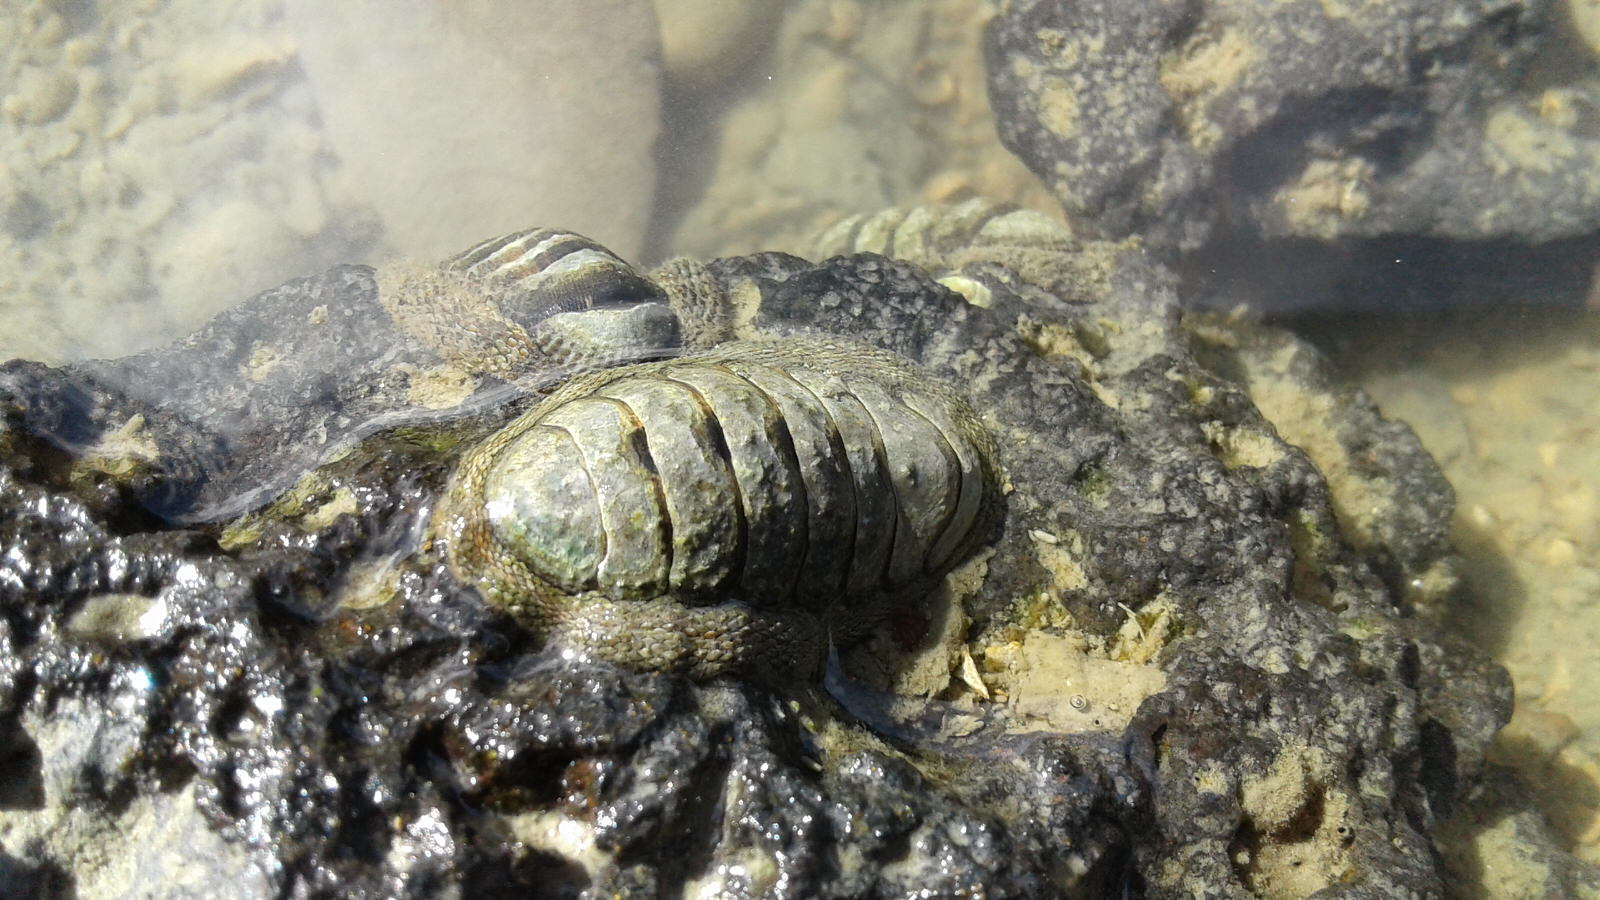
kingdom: Animalia
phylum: Mollusca
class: Polyplacophora
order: Chitonida
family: Chitonidae
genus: Sypharochiton
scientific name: Sypharochiton pelliserpentis
